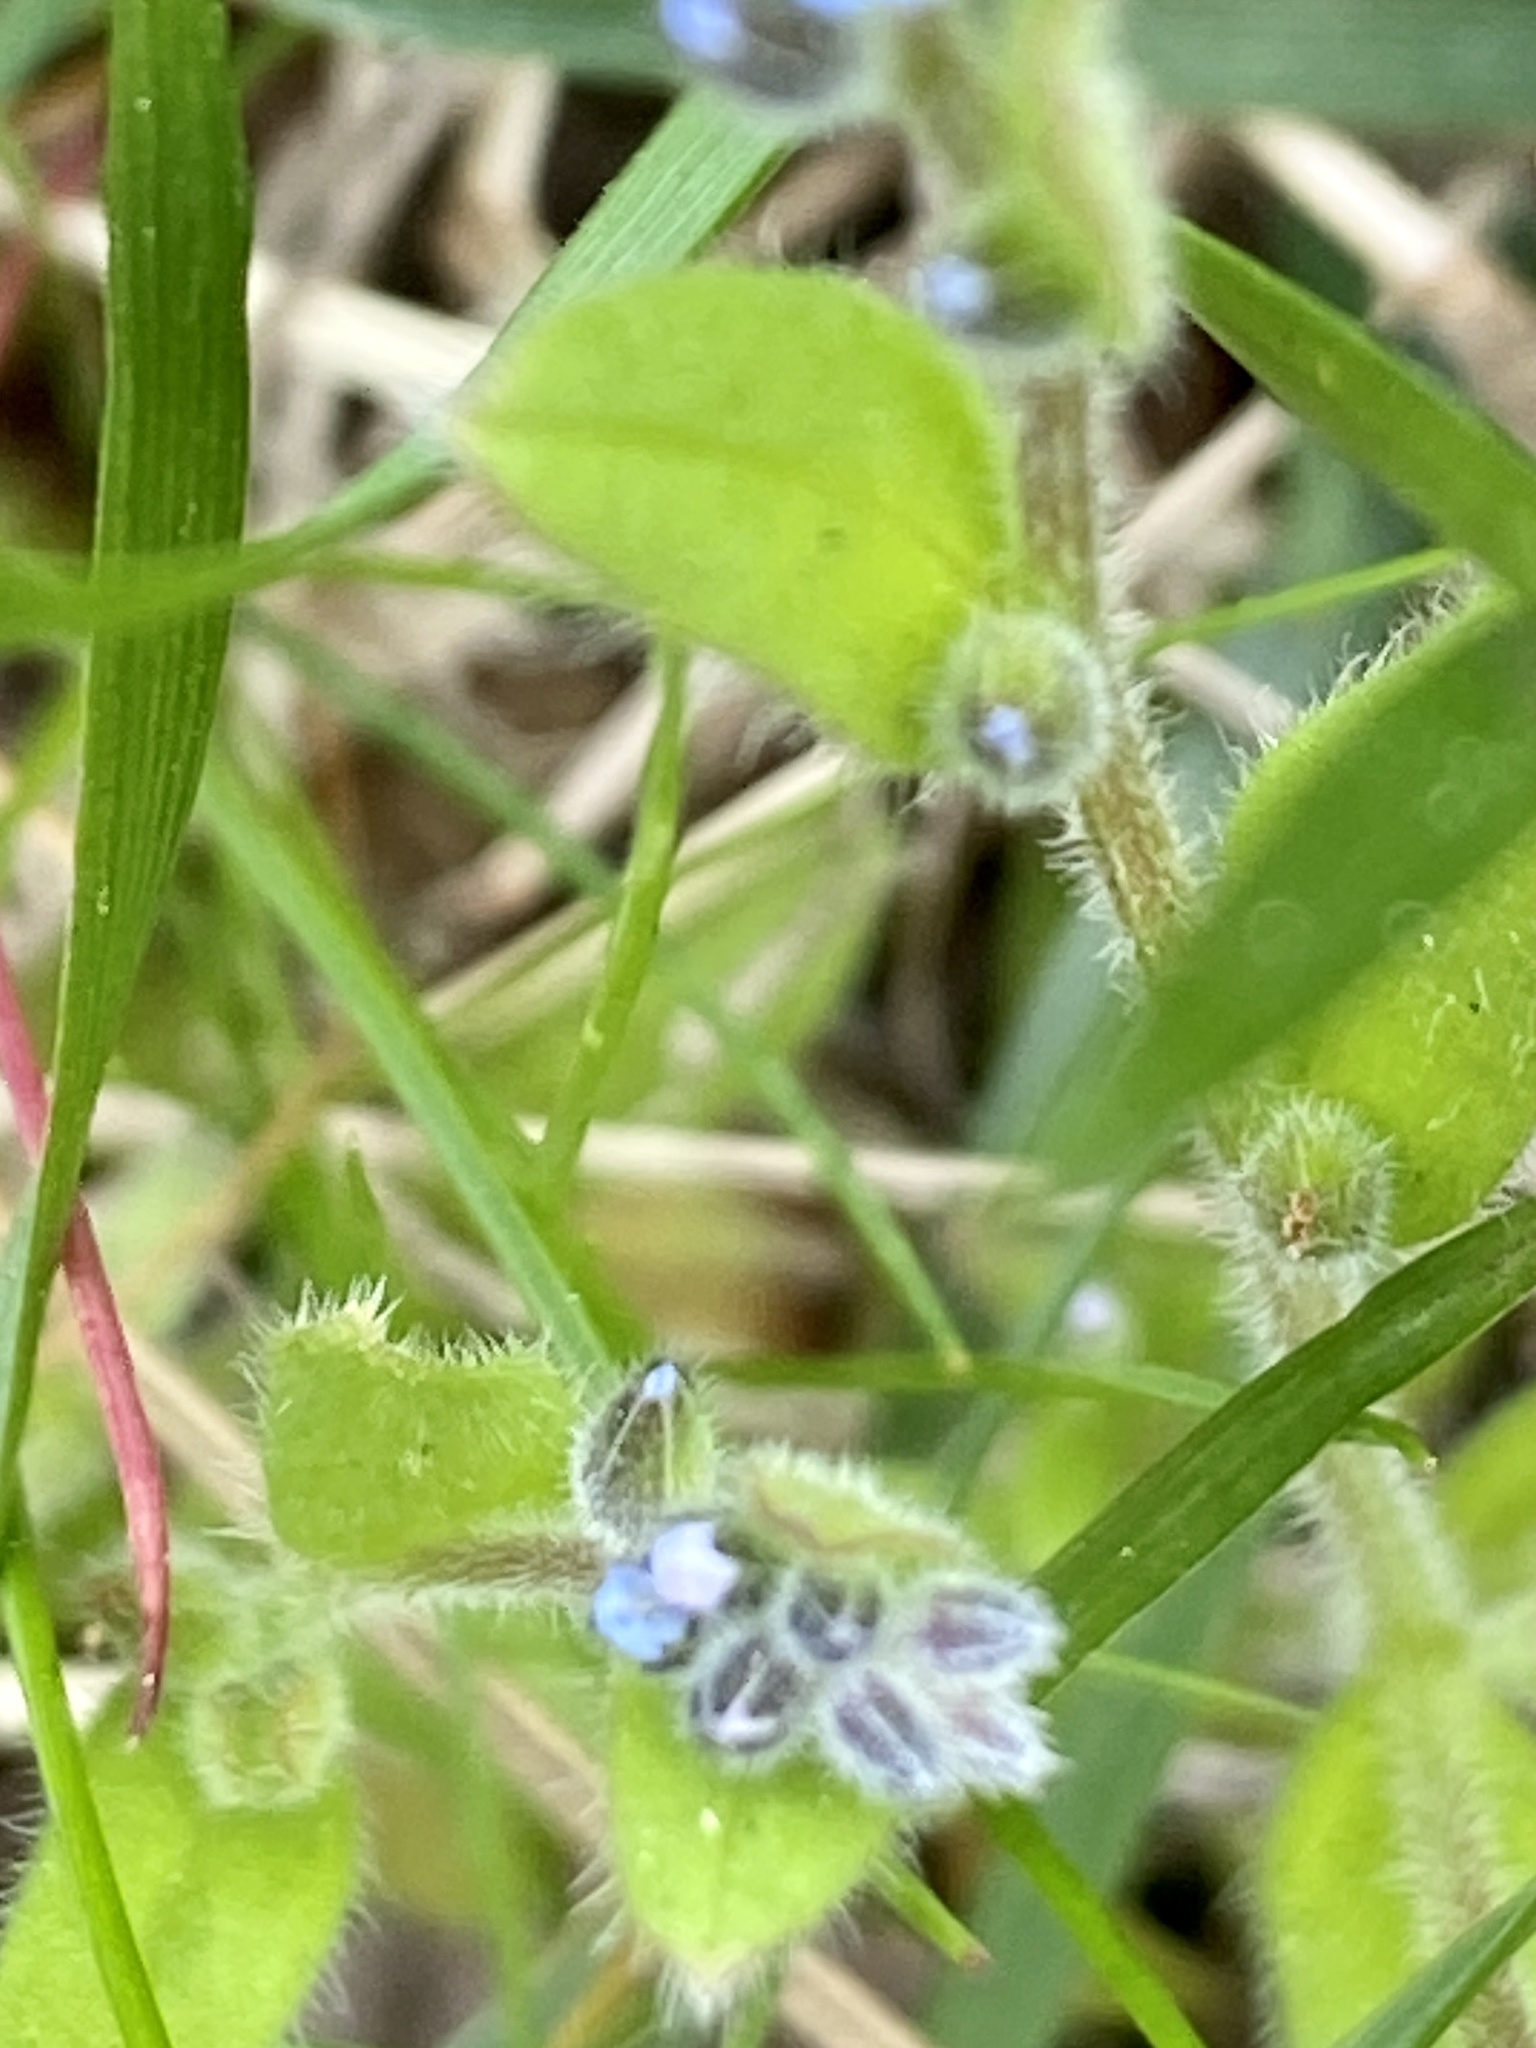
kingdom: Plantae
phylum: Tracheophyta
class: Magnoliopsida
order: Boraginales
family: Boraginaceae
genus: Myosotis
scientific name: Myosotis stricta
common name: Strict forget-me-not
